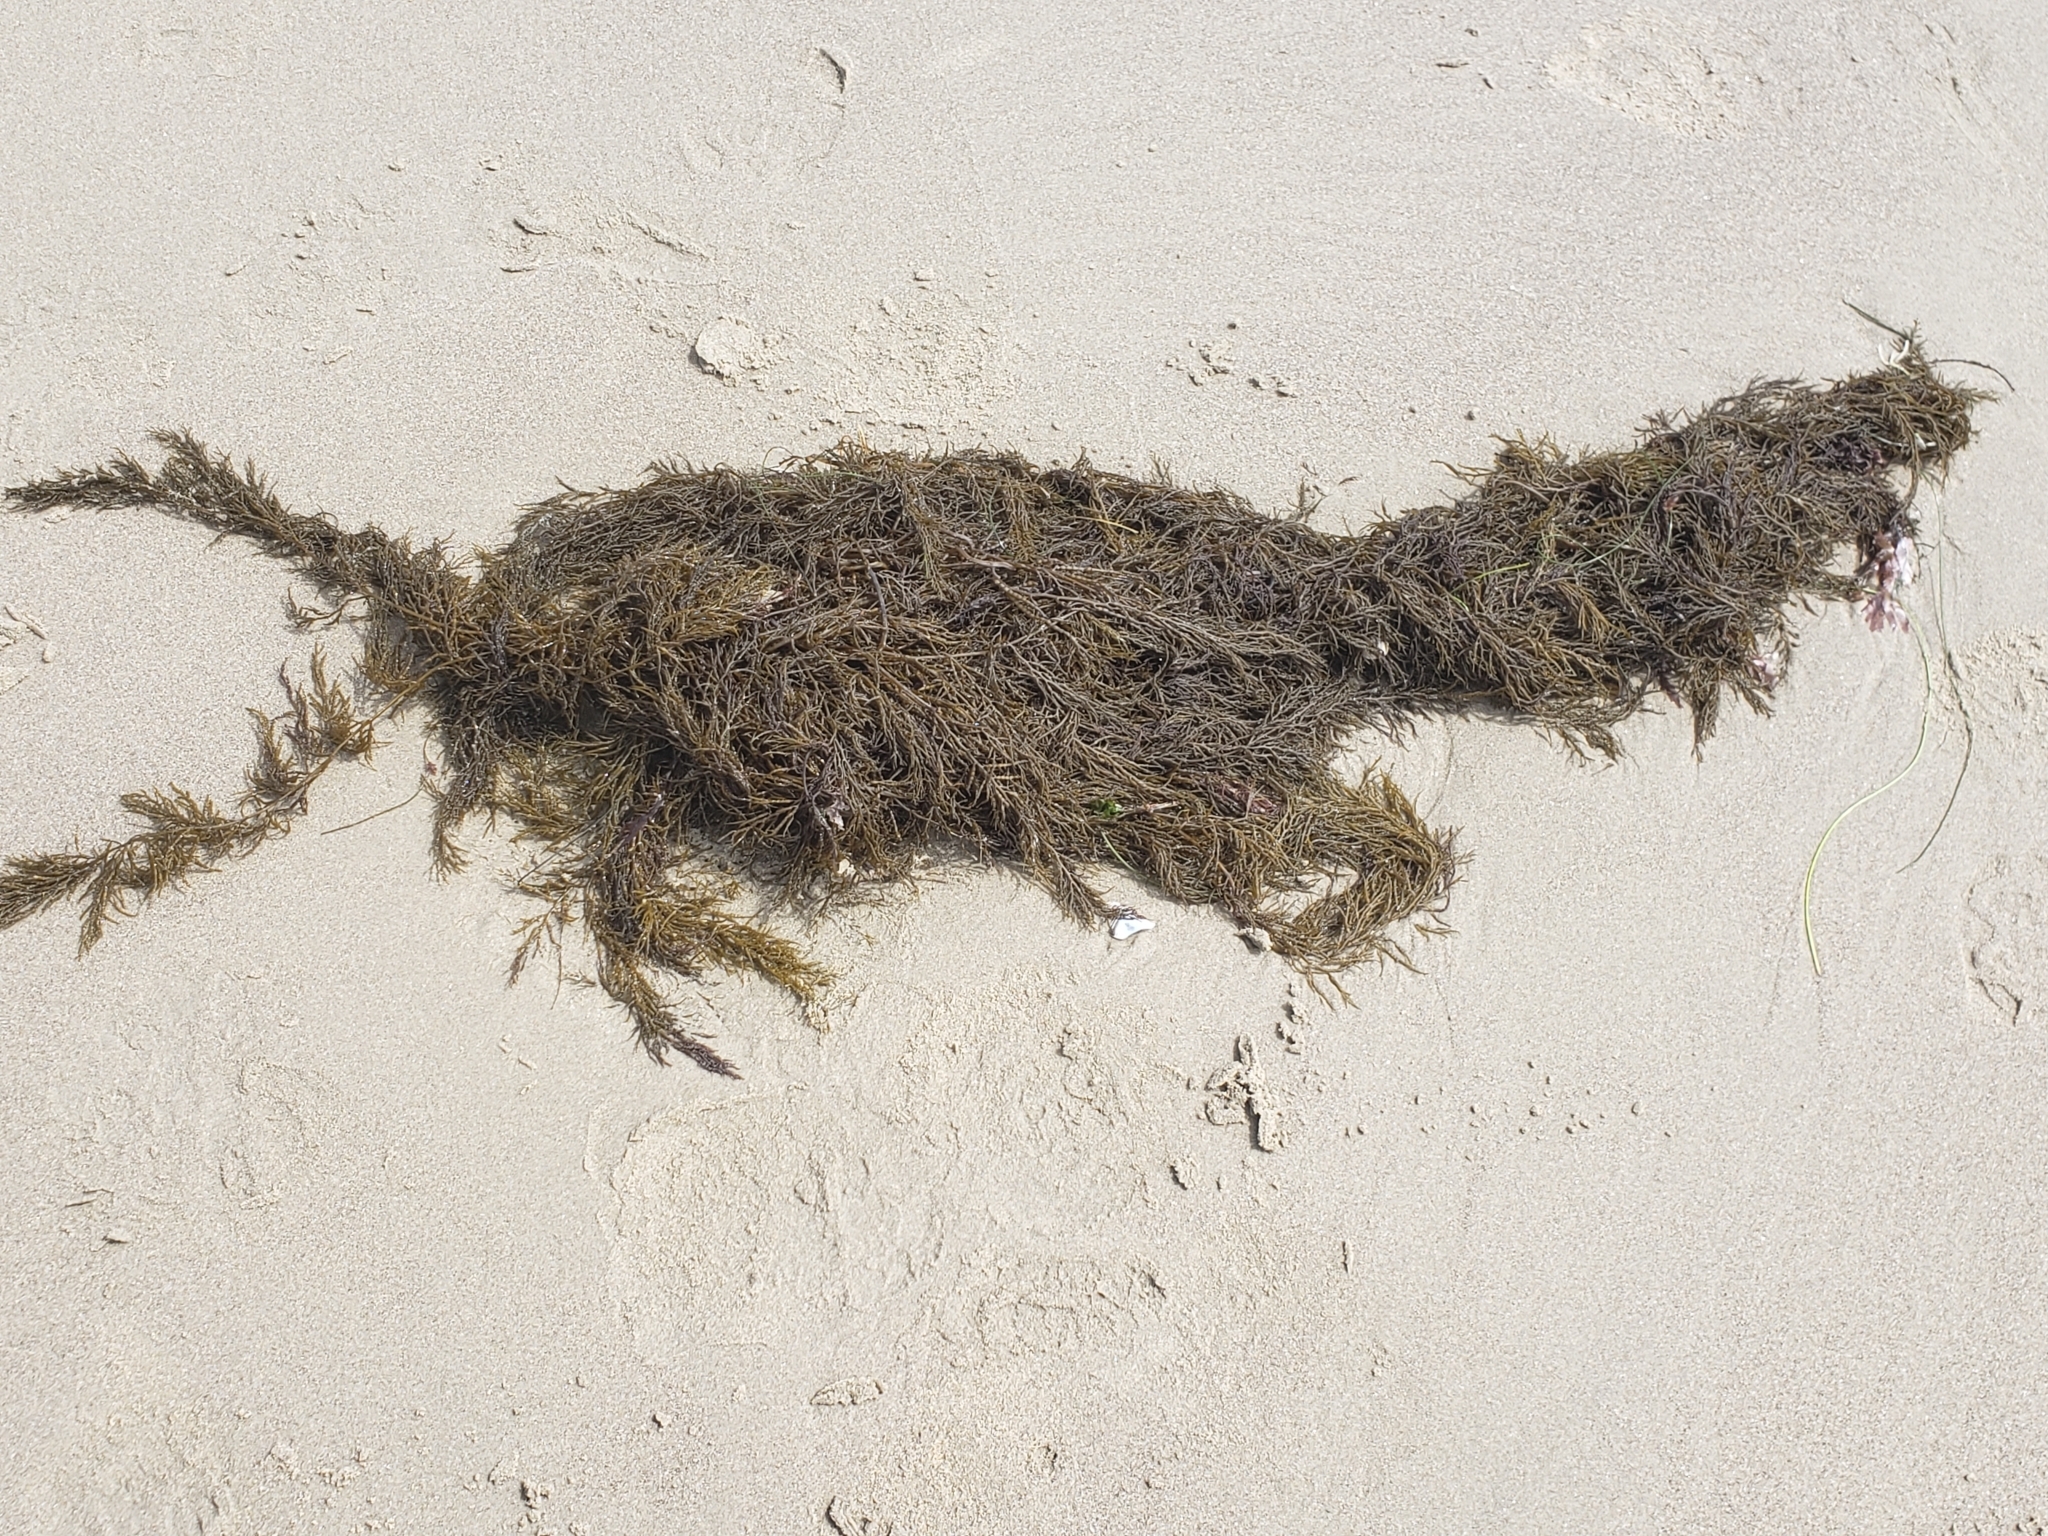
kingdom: Chromista
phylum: Ochrophyta
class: Phaeophyceae
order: Fucales
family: Sargassaceae
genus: Stephanocystis
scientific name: Stephanocystis
